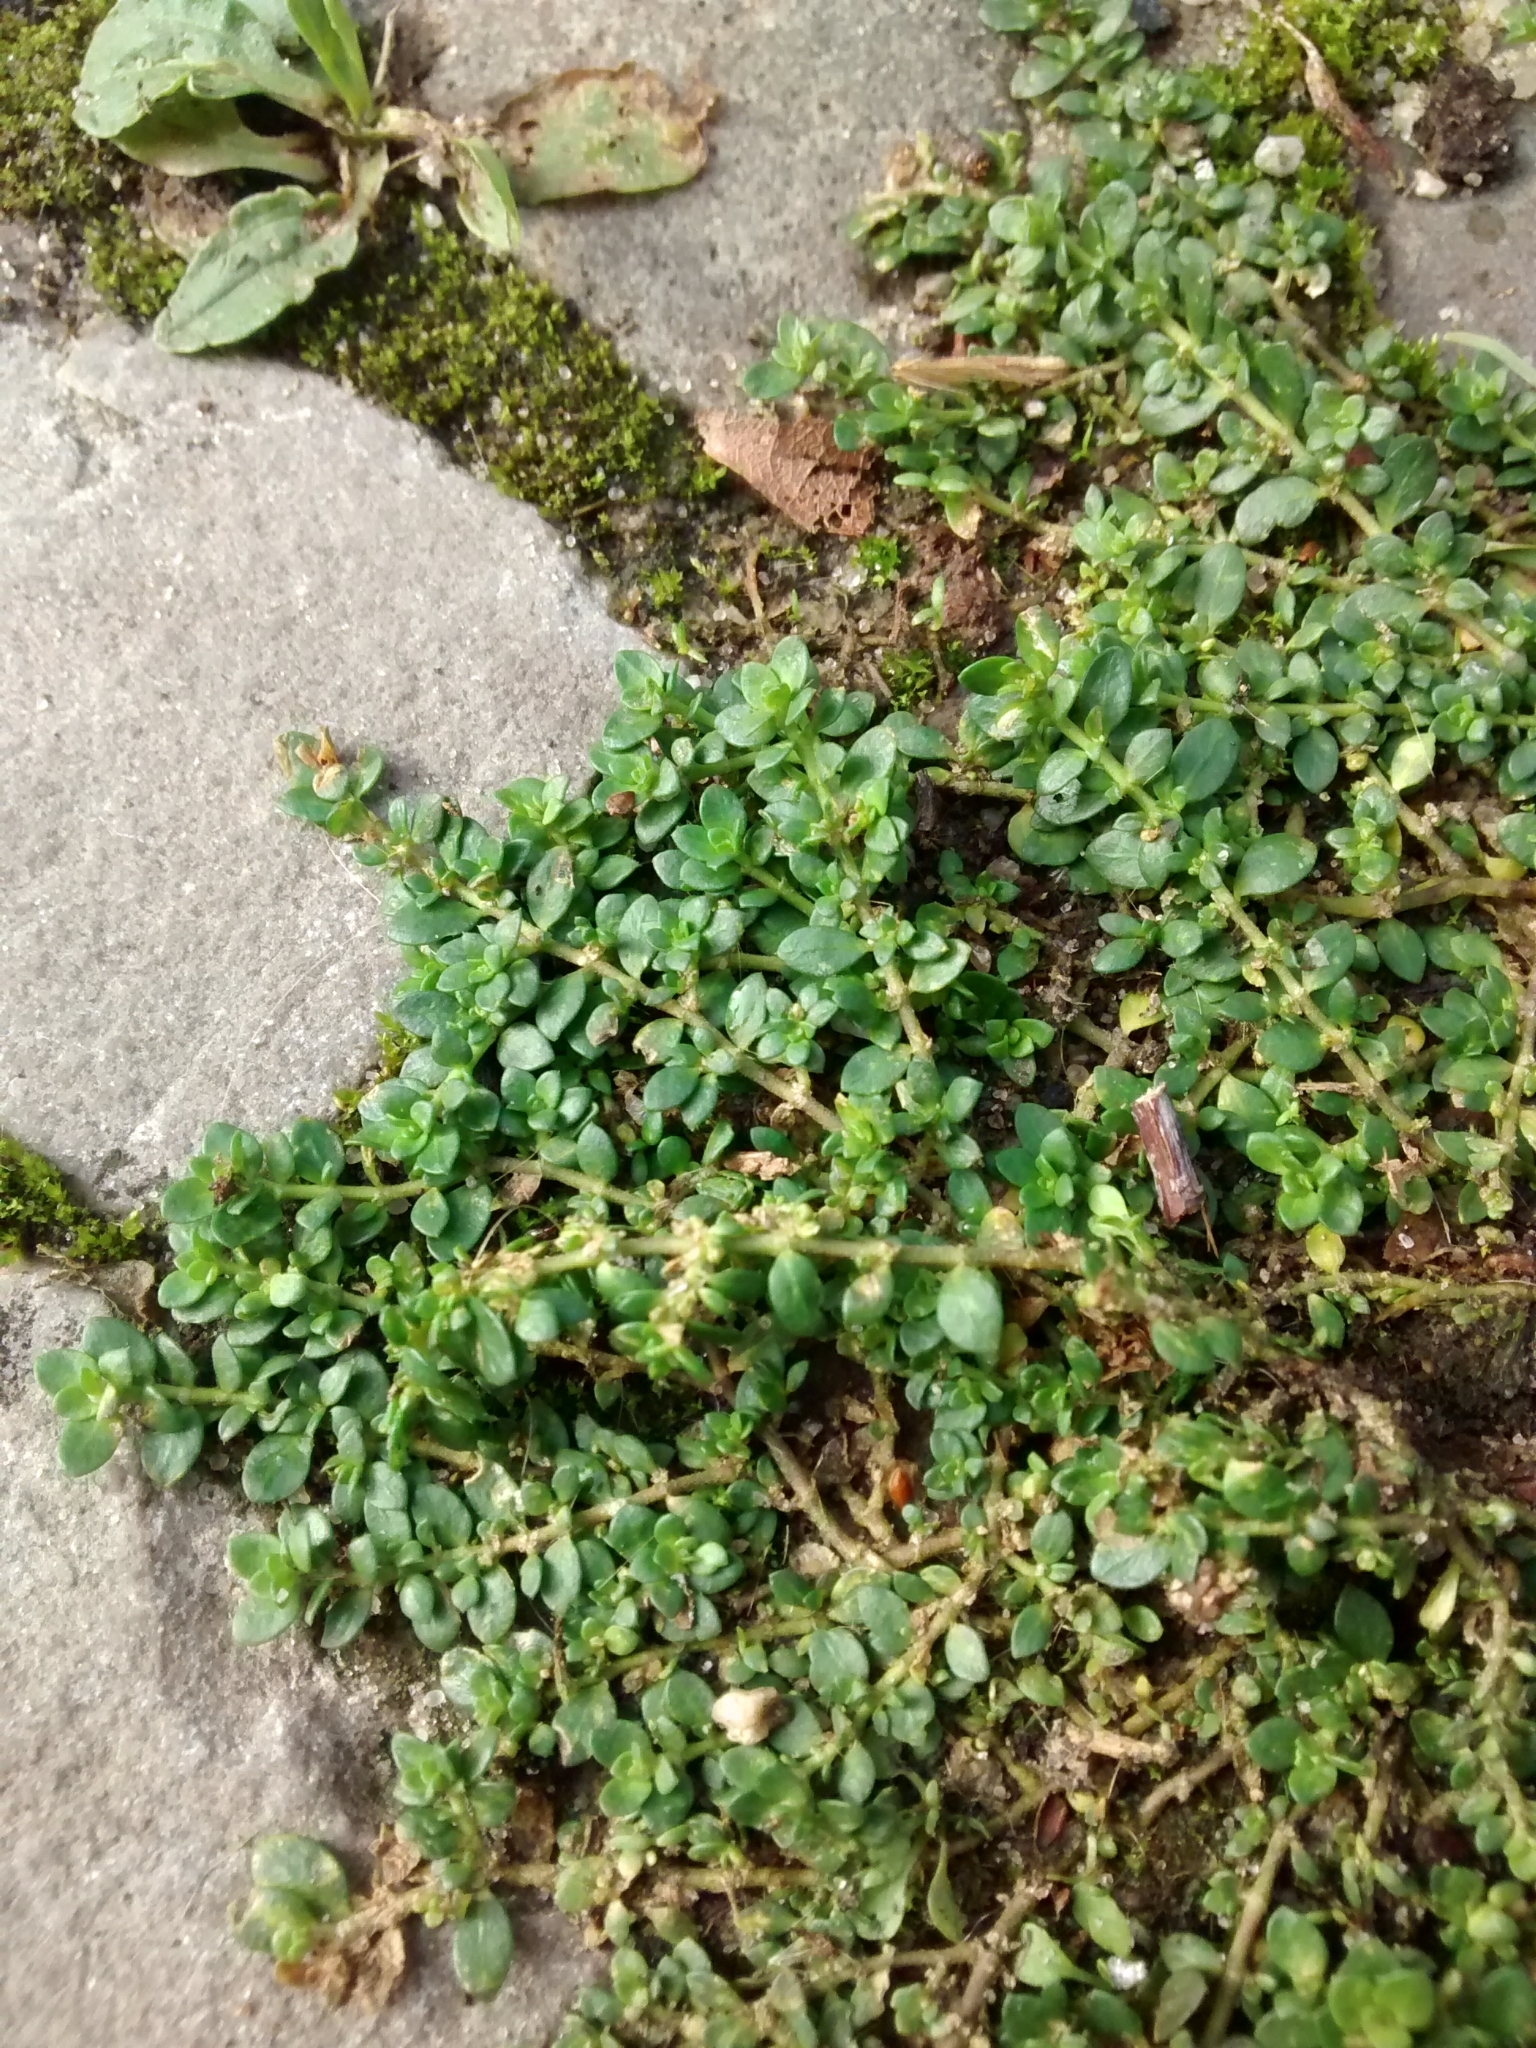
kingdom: Plantae
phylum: Tracheophyta
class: Magnoliopsida
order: Caryophyllales
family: Caryophyllaceae
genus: Herniaria
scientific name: Herniaria glabra
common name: Smooth rupturewort
